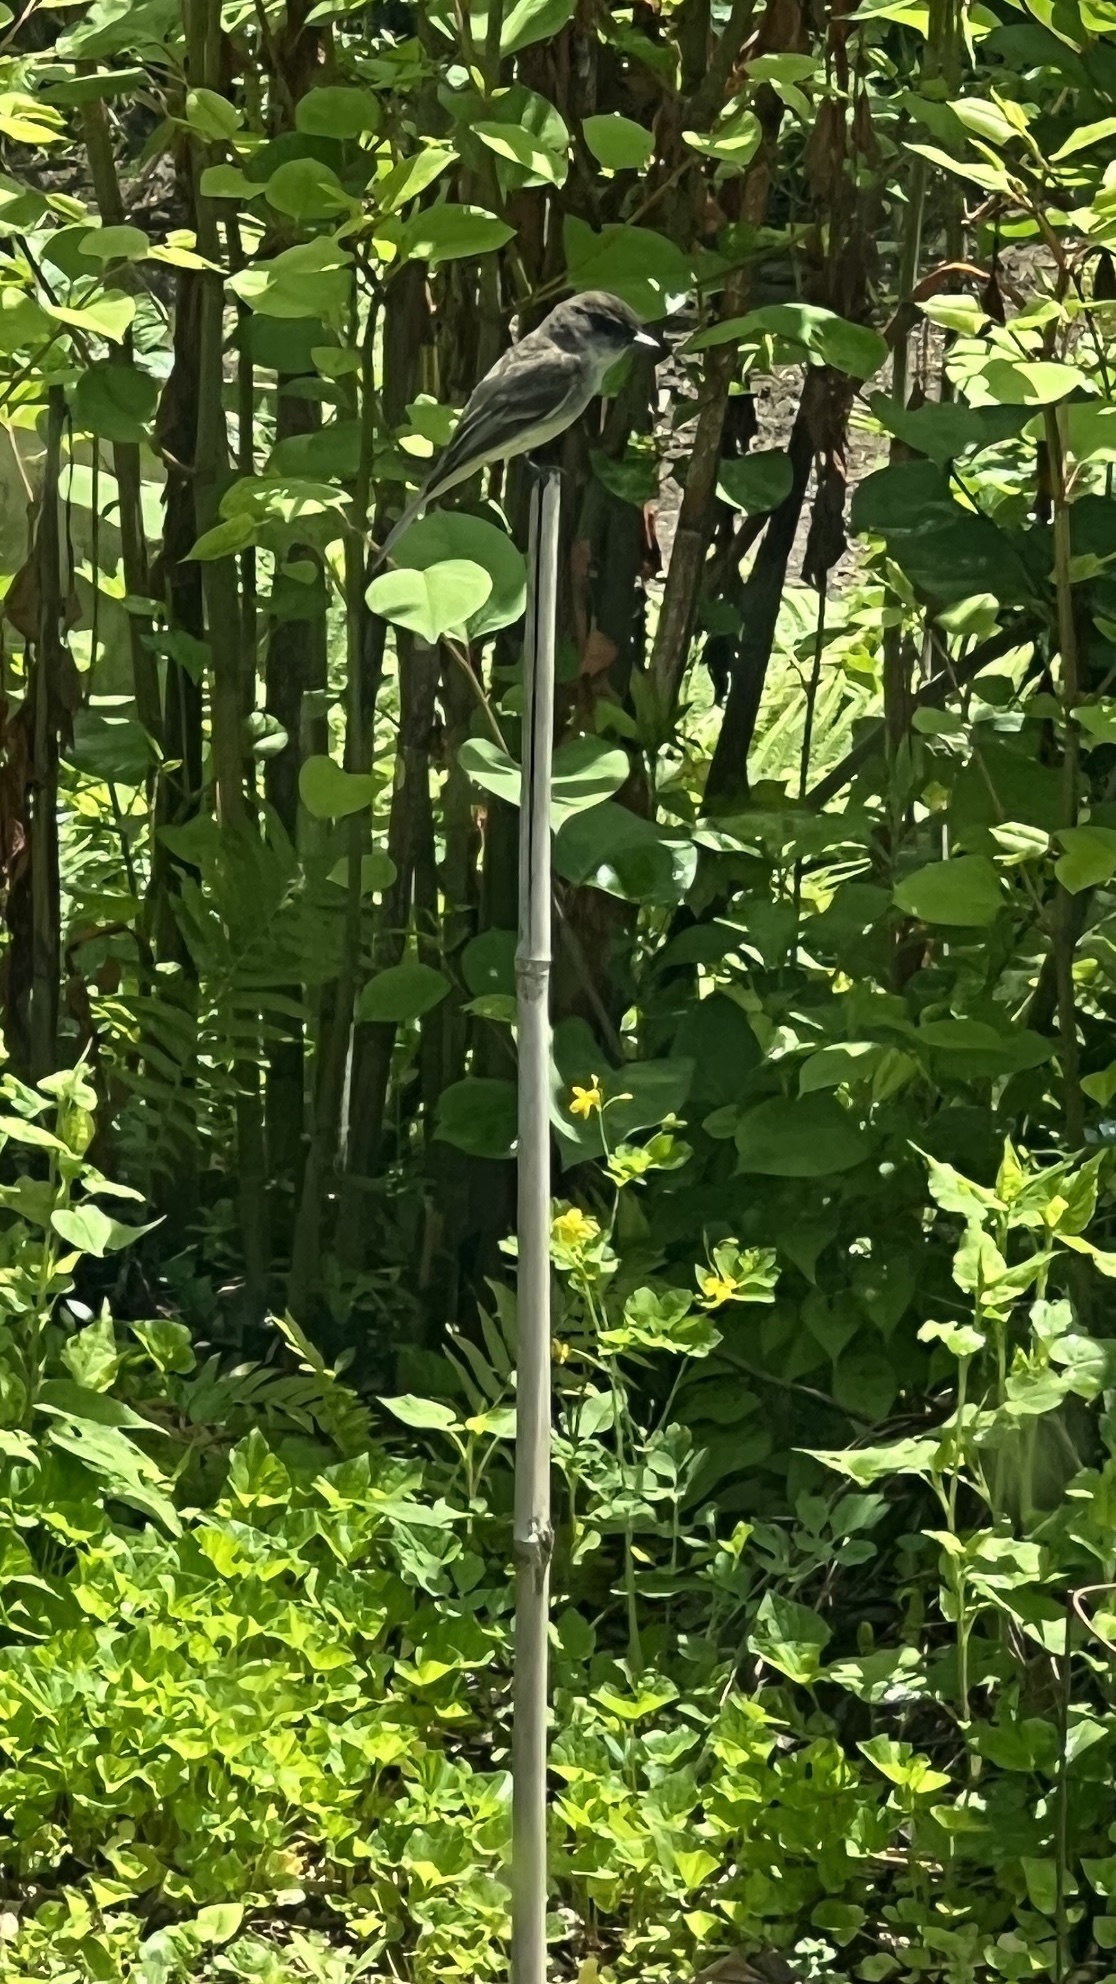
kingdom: Animalia
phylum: Chordata
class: Aves
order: Passeriformes
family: Tyrannidae
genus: Sayornis
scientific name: Sayornis phoebe
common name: Eastern phoebe
